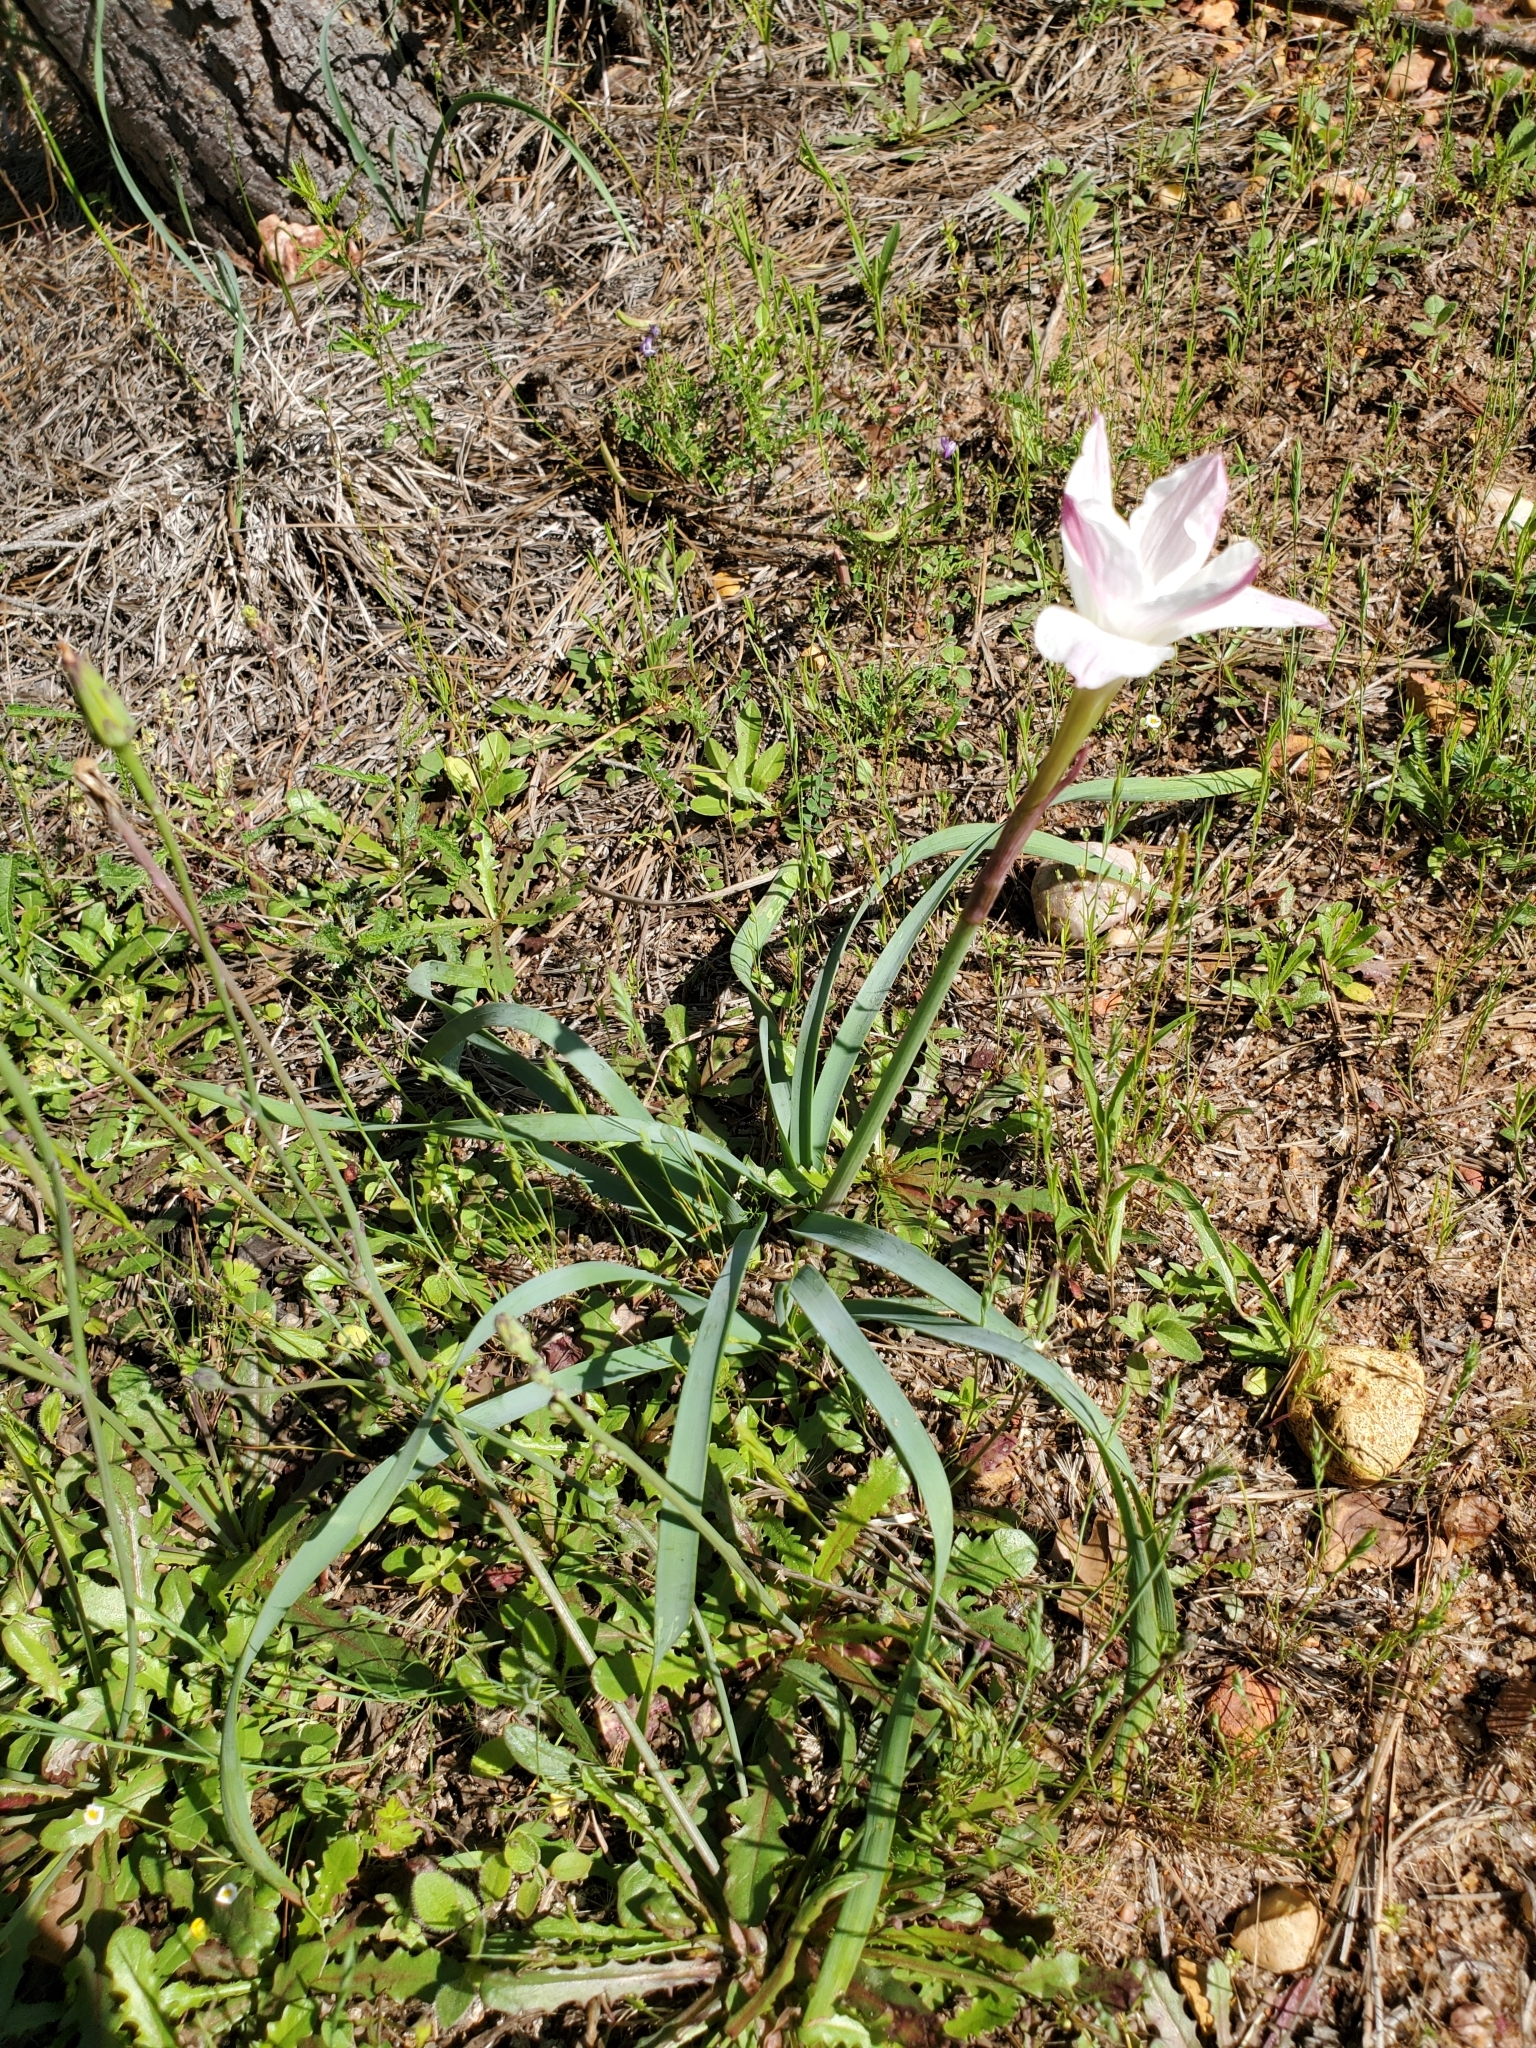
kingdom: Plantae
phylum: Tracheophyta
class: Liliopsida
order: Asparagales
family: Amaryllidaceae
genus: Zephyranthes
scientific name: Zephyranthes drummondii
